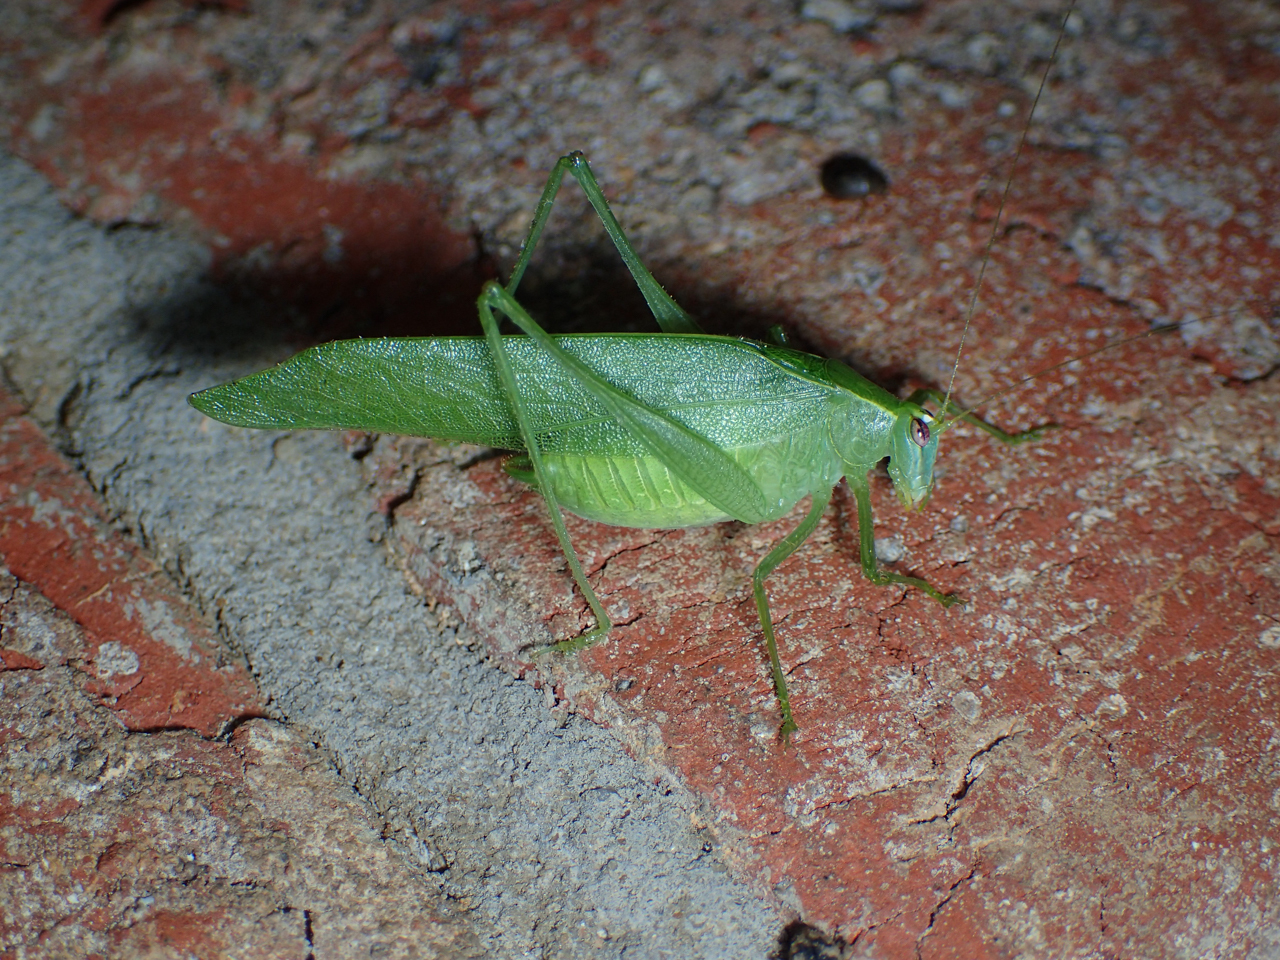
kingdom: Animalia
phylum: Arthropoda
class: Insecta
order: Orthoptera
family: Tettigoniidae
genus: Montezumina
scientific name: Montezumina modesta
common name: Modest katydid
